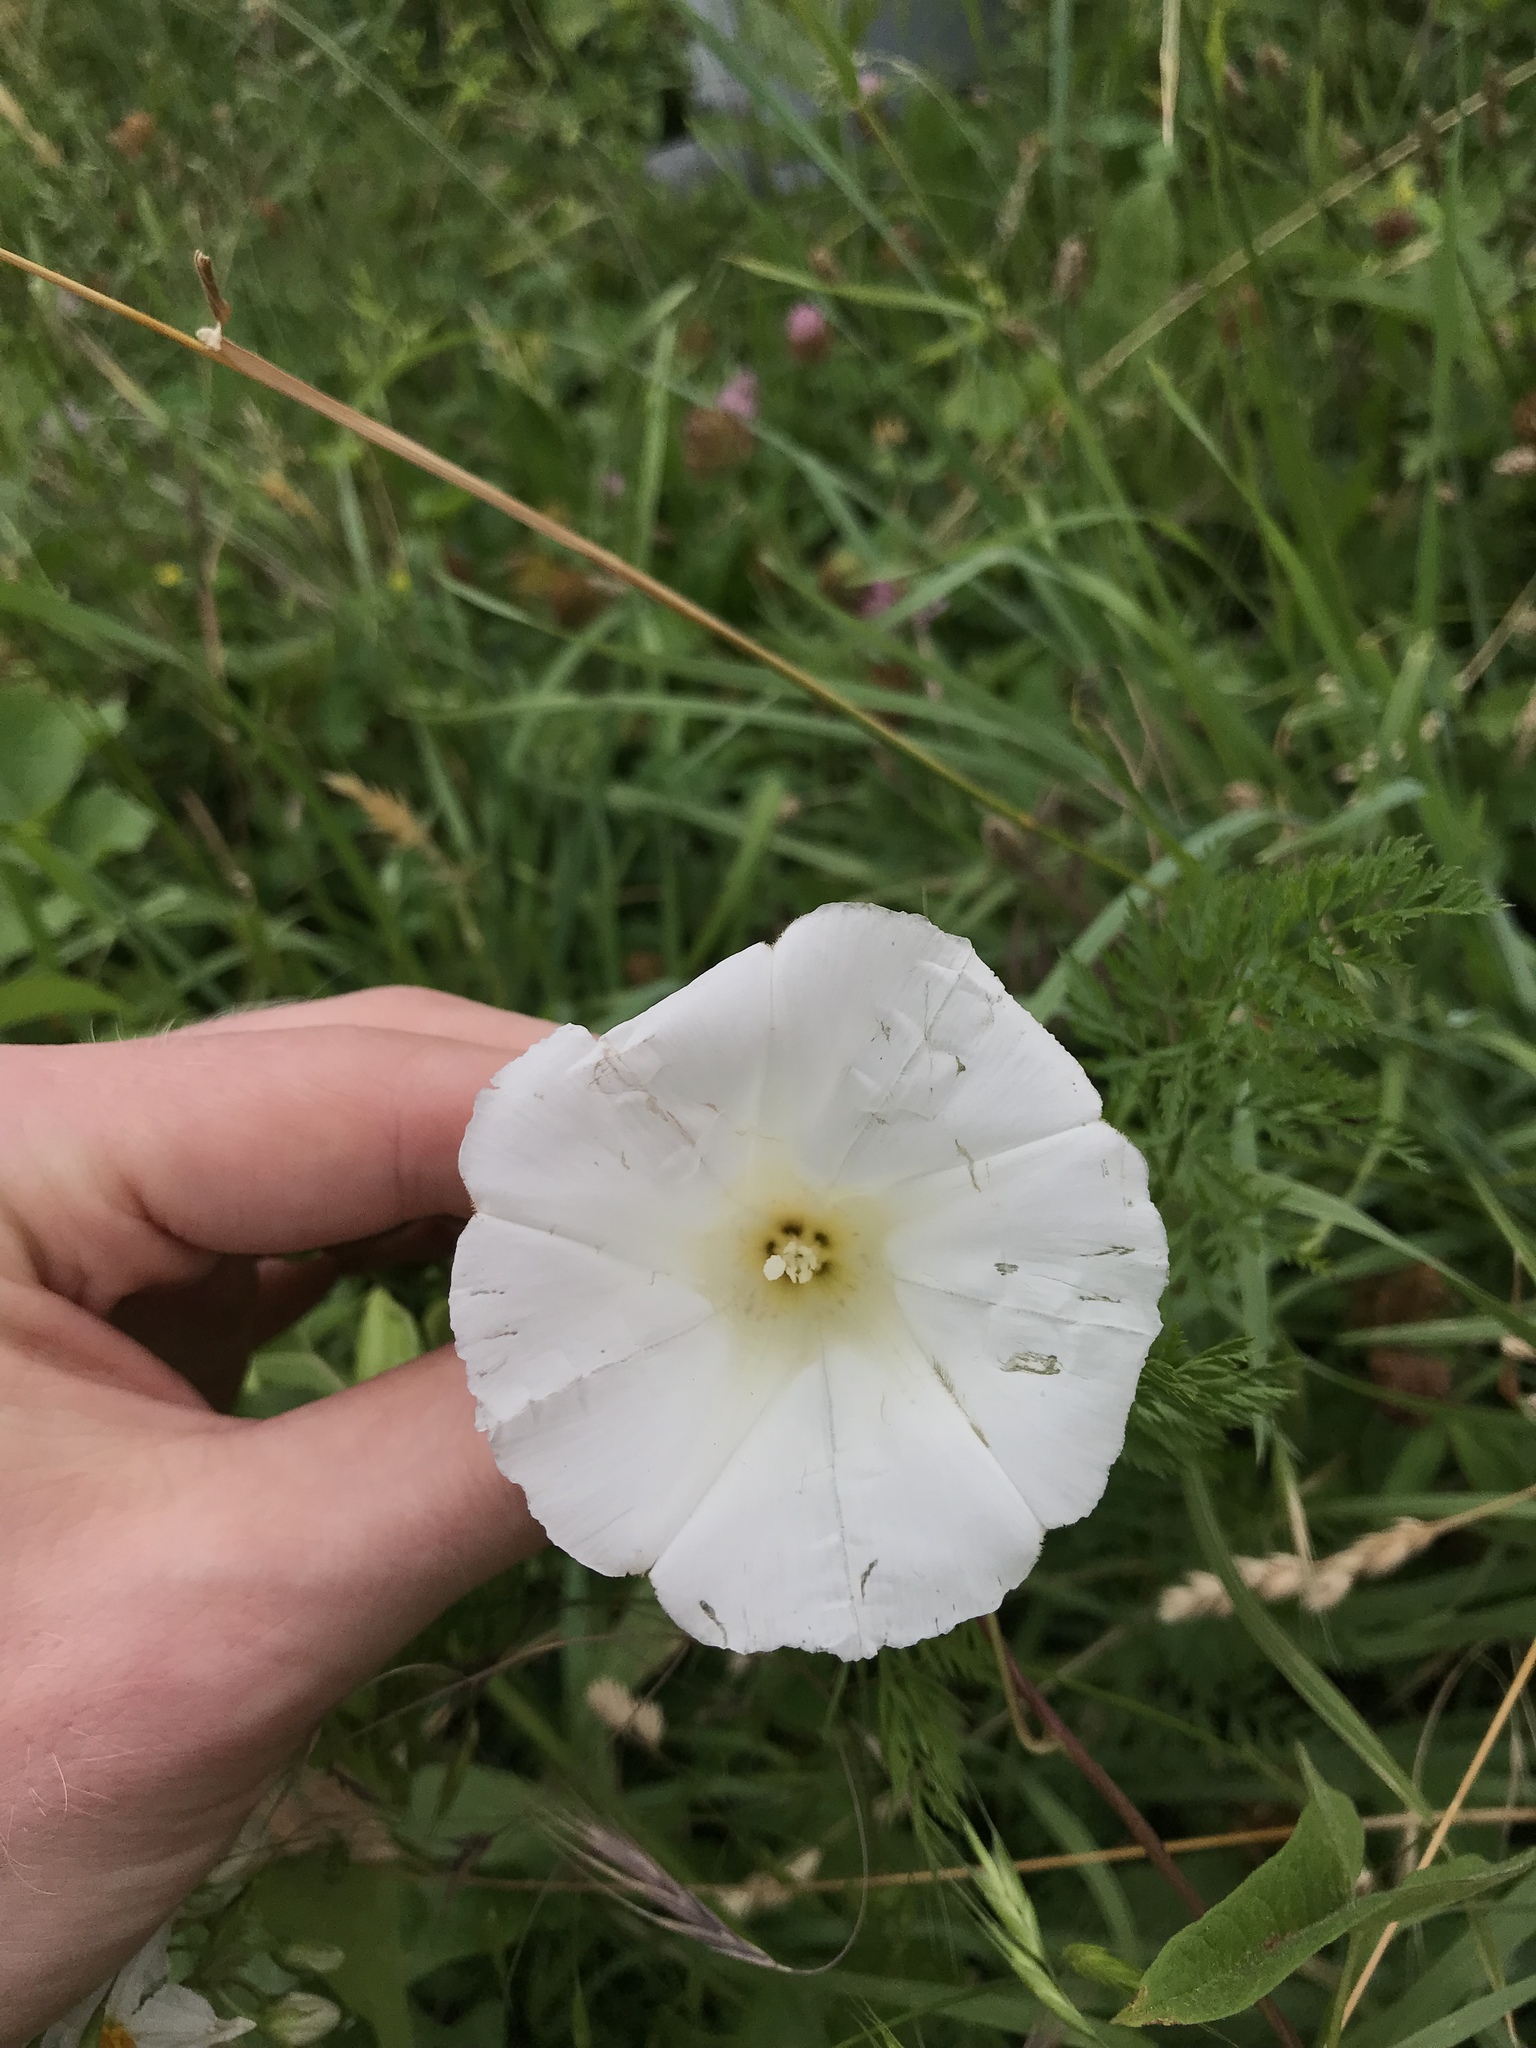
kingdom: Plantae
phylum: Tracheophyta
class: Magnoliopsida
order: Solanales
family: Convolvulaceae
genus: Calystegia
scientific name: Calystegia sepium
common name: Hedge bindweed
